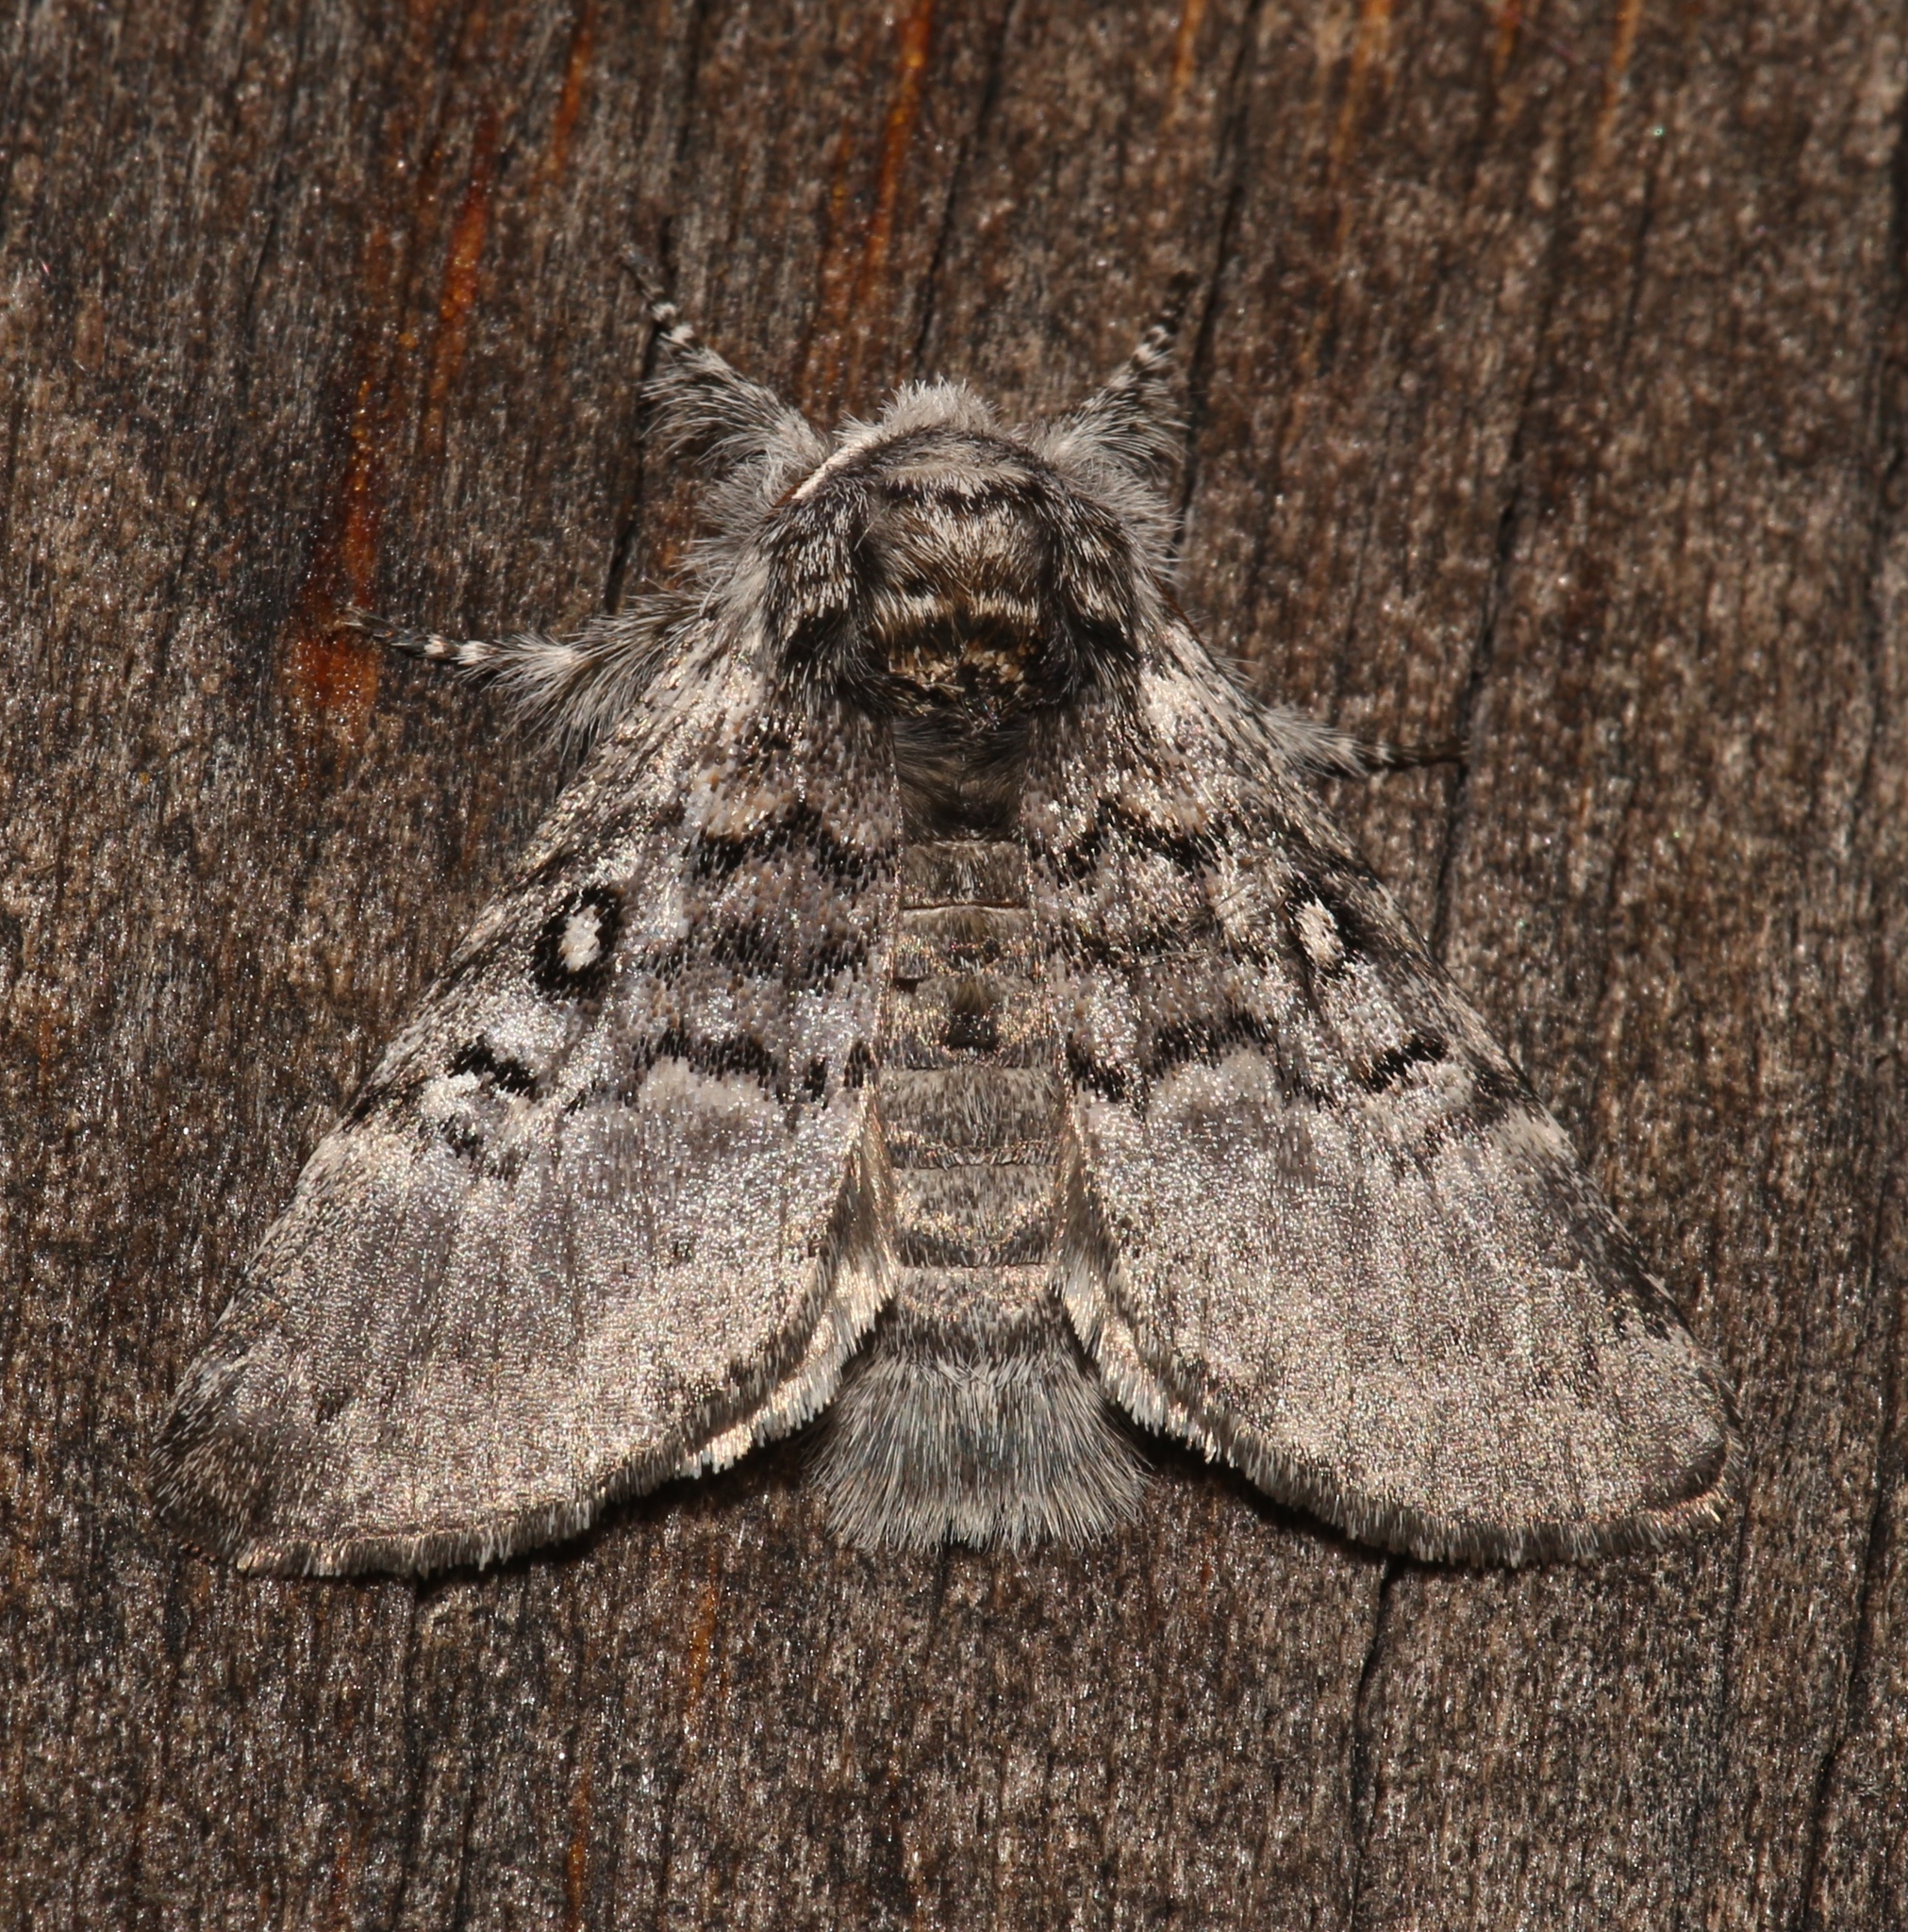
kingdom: Animalia
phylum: Arthropoda
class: Insecta
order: Lepidoptera
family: Noctuidae
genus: Colocasia
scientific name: Colocasia propinquilinea
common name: Close-banded demas
